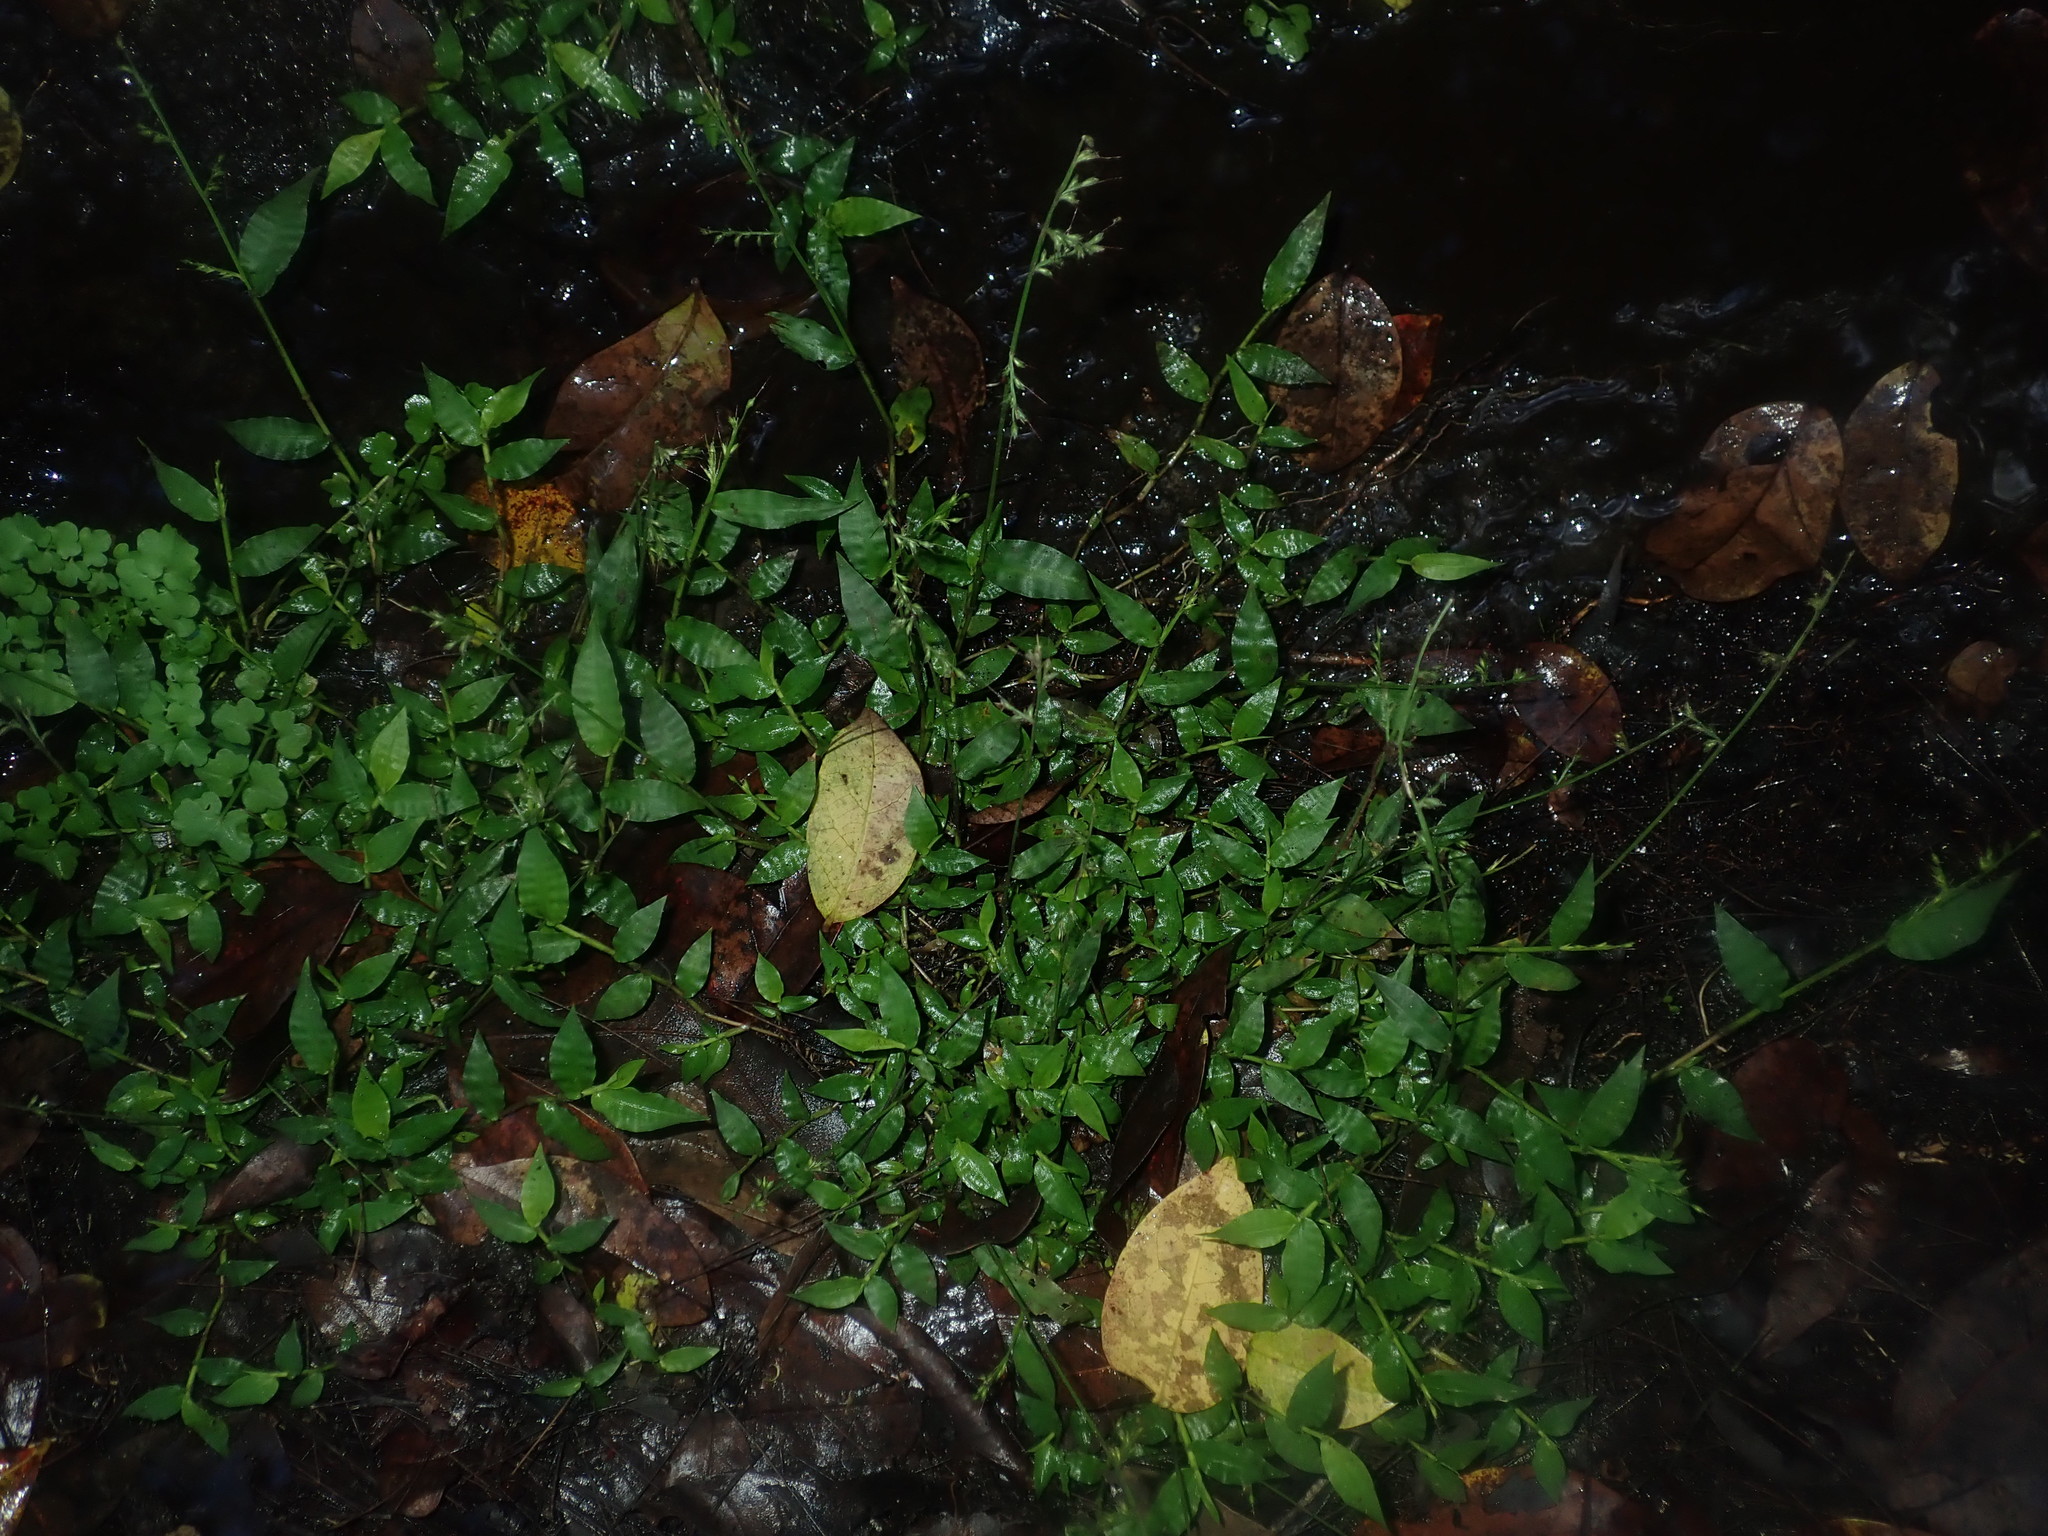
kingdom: Plantae
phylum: Tracheophyta
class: Liliopsida
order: Poales
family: Poaceae
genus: Oplismenus
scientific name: Oplismenus hirtellus
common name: Basketgrass
